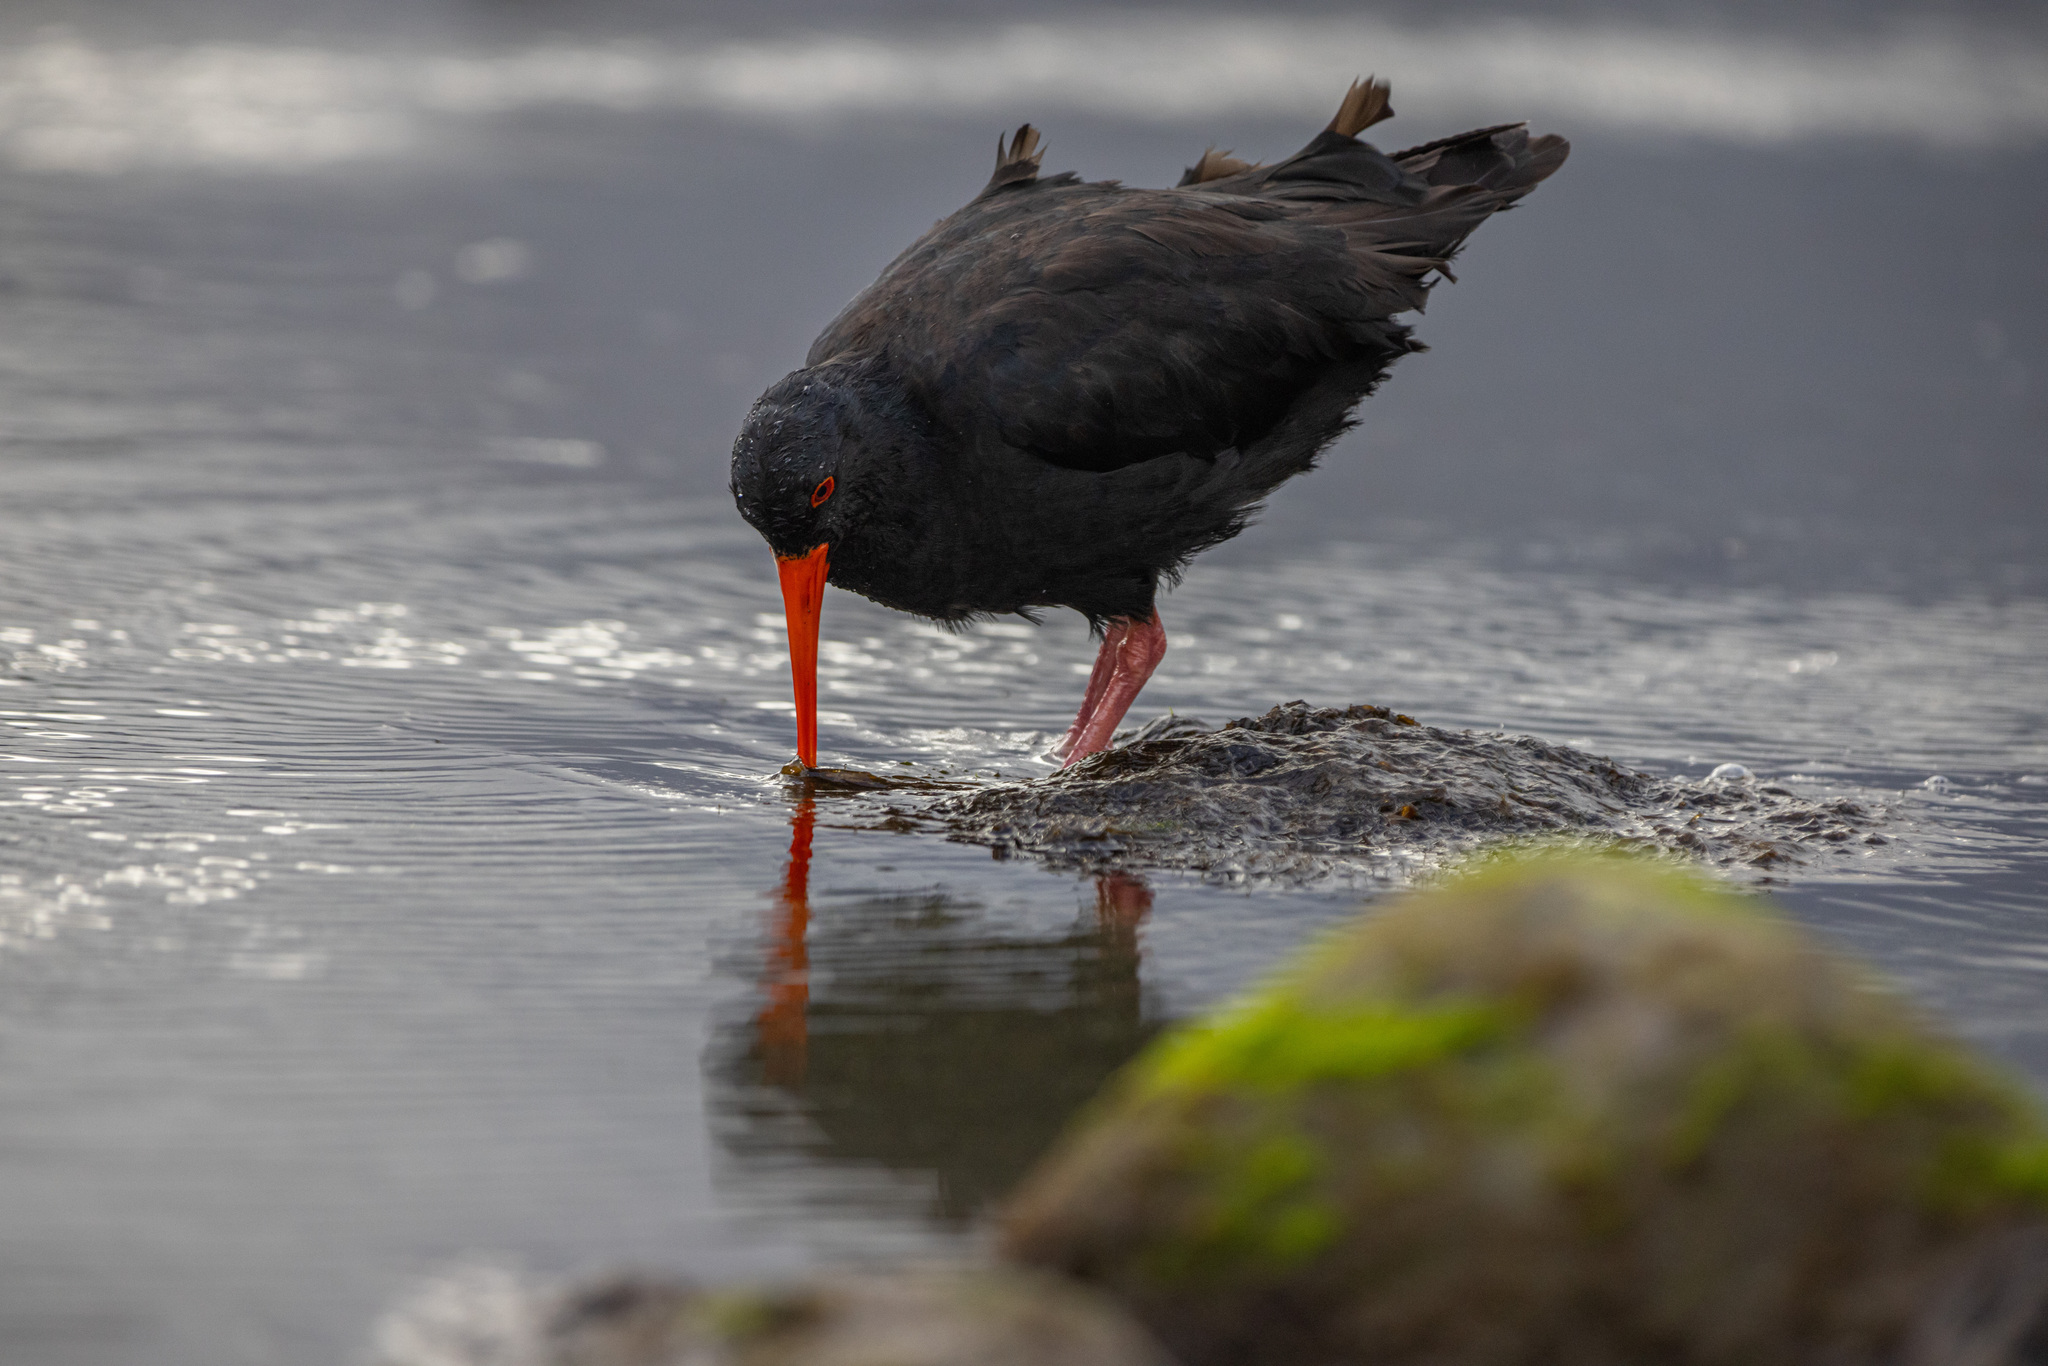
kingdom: Animalia
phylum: Chordata
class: Aves
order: Charadriiformes
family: Haematopodidae
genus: Haematopus
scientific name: Haematopus unicolor
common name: Variable oystercatcher
